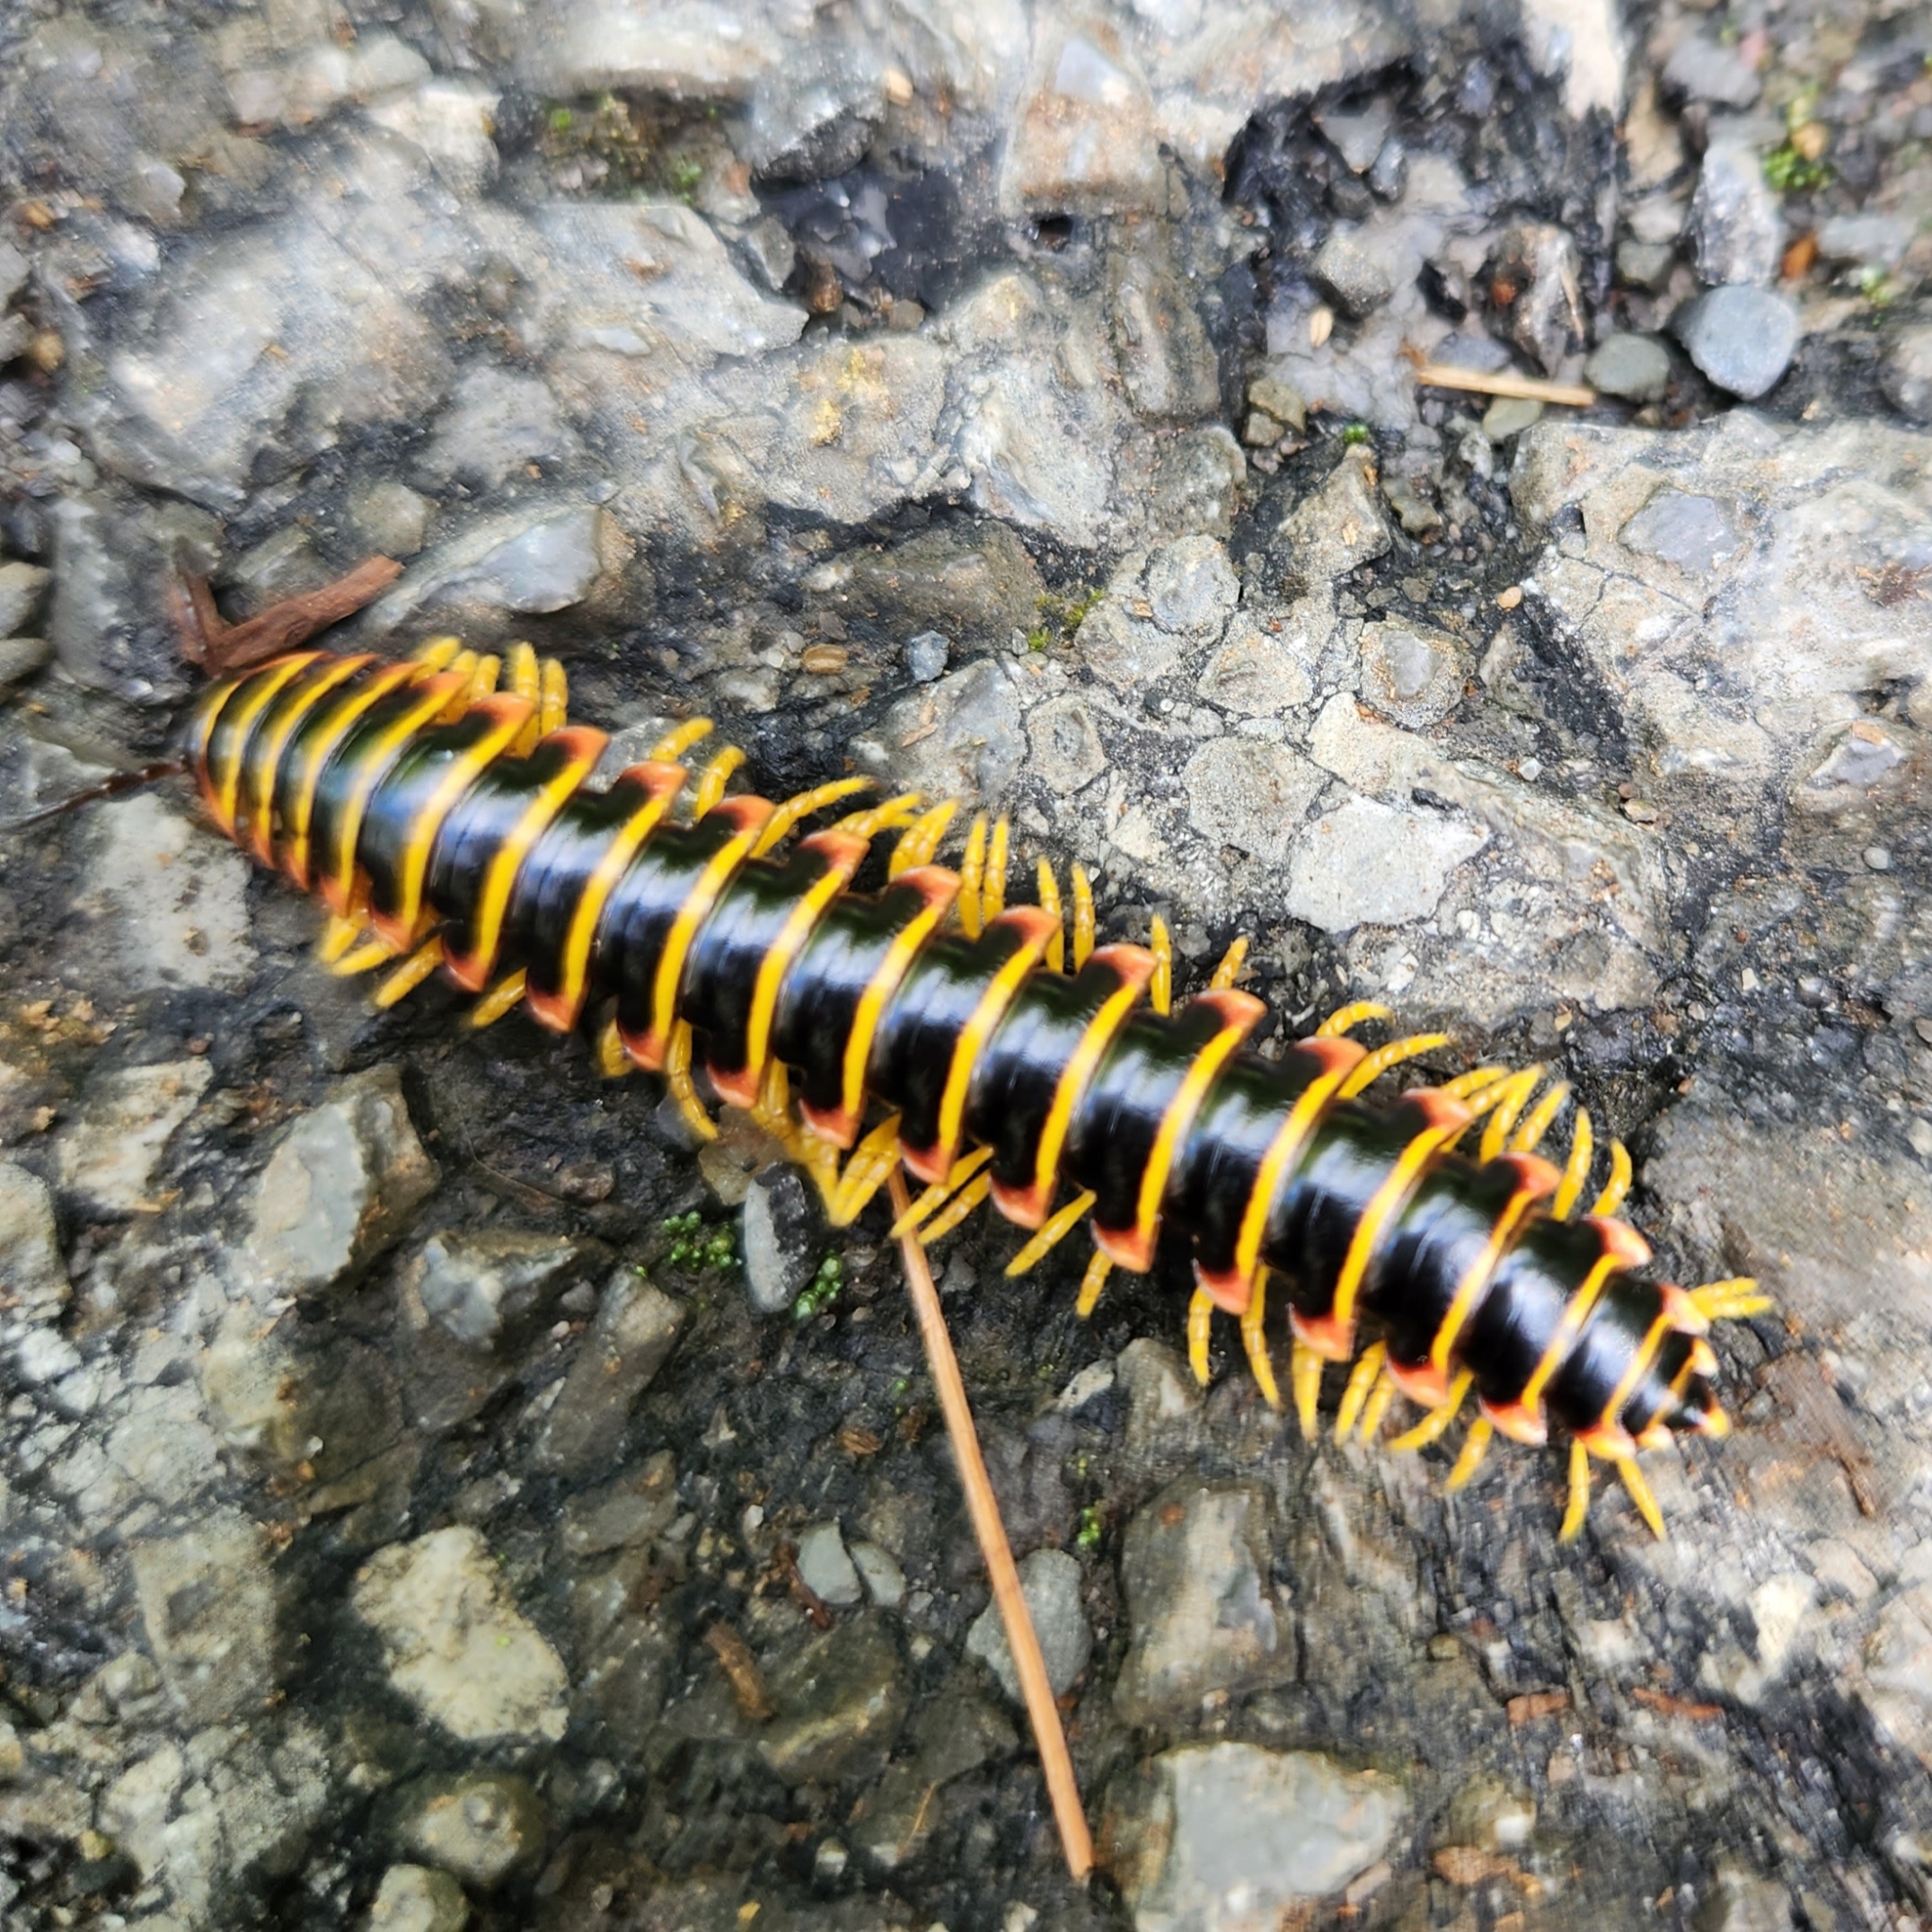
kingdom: Animalia
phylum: Arthropoda
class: Diplopoda
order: Polydesmida
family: Xystodesmidae
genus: Apheloria
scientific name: Apheloria virginiensis
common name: Black-and-gold flat millipede
